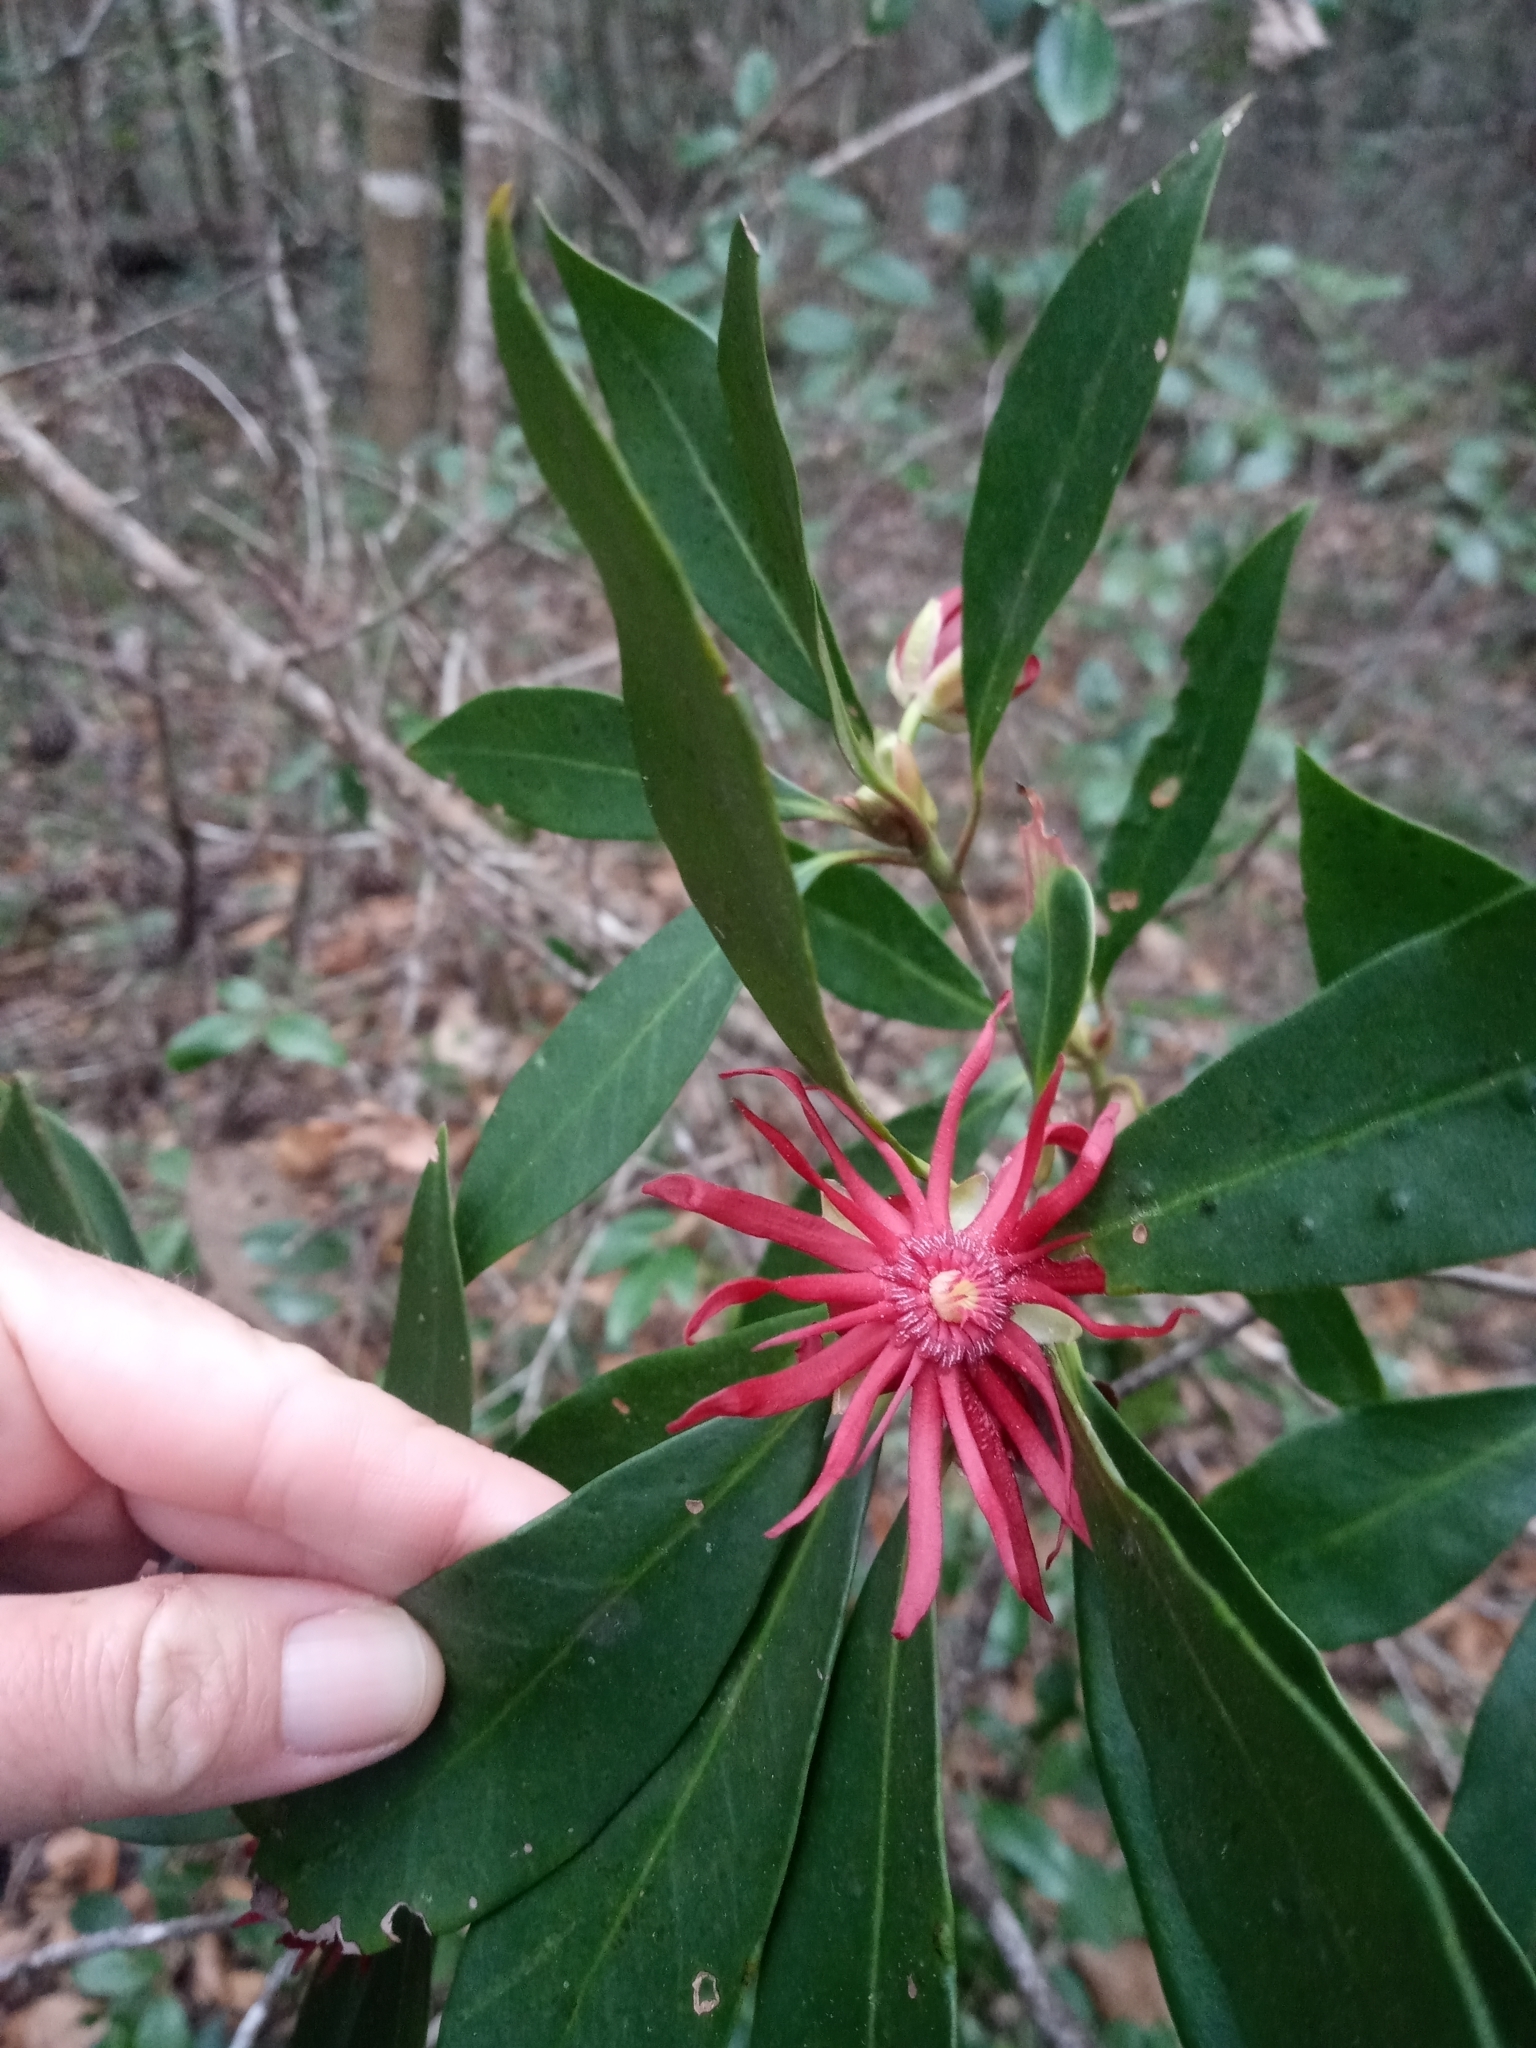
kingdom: Plantae
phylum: Tracheophyta
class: Magnoliopsida
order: Austrobaileyales
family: Schisandraceae
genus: Illicium
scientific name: Illicium floridanum
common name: Florida anisetree
